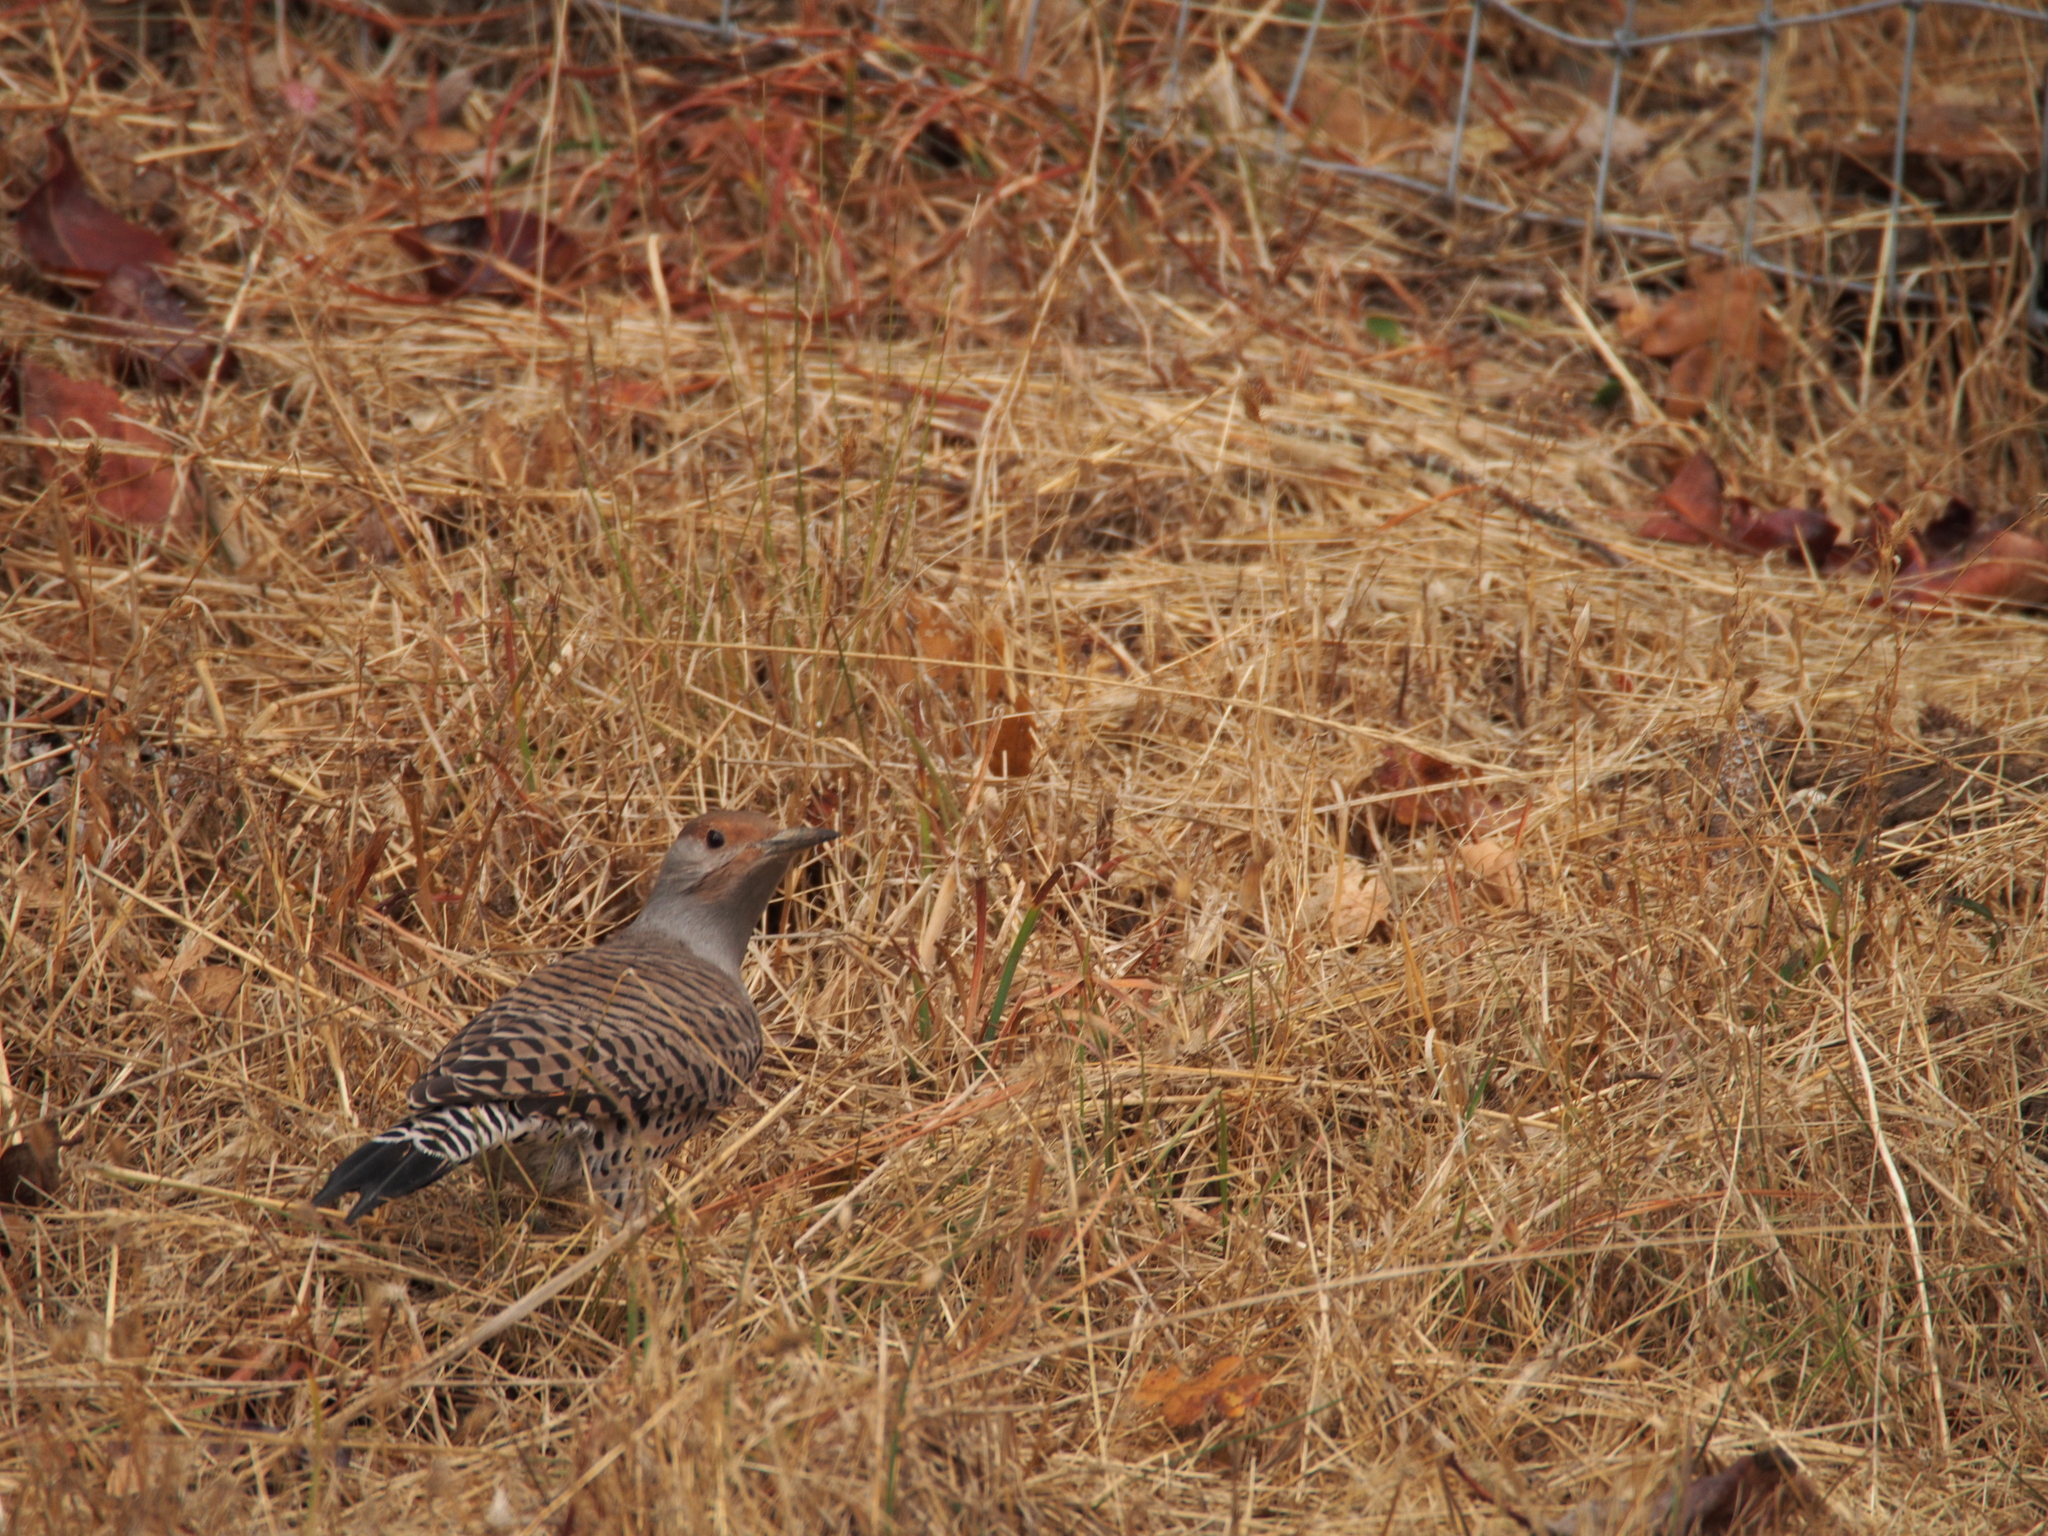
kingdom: Animalia
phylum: Chordata
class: Aves
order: Piciformes
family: Picidae
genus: Colaptes
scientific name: Colaptes auratus
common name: Northern flicker
